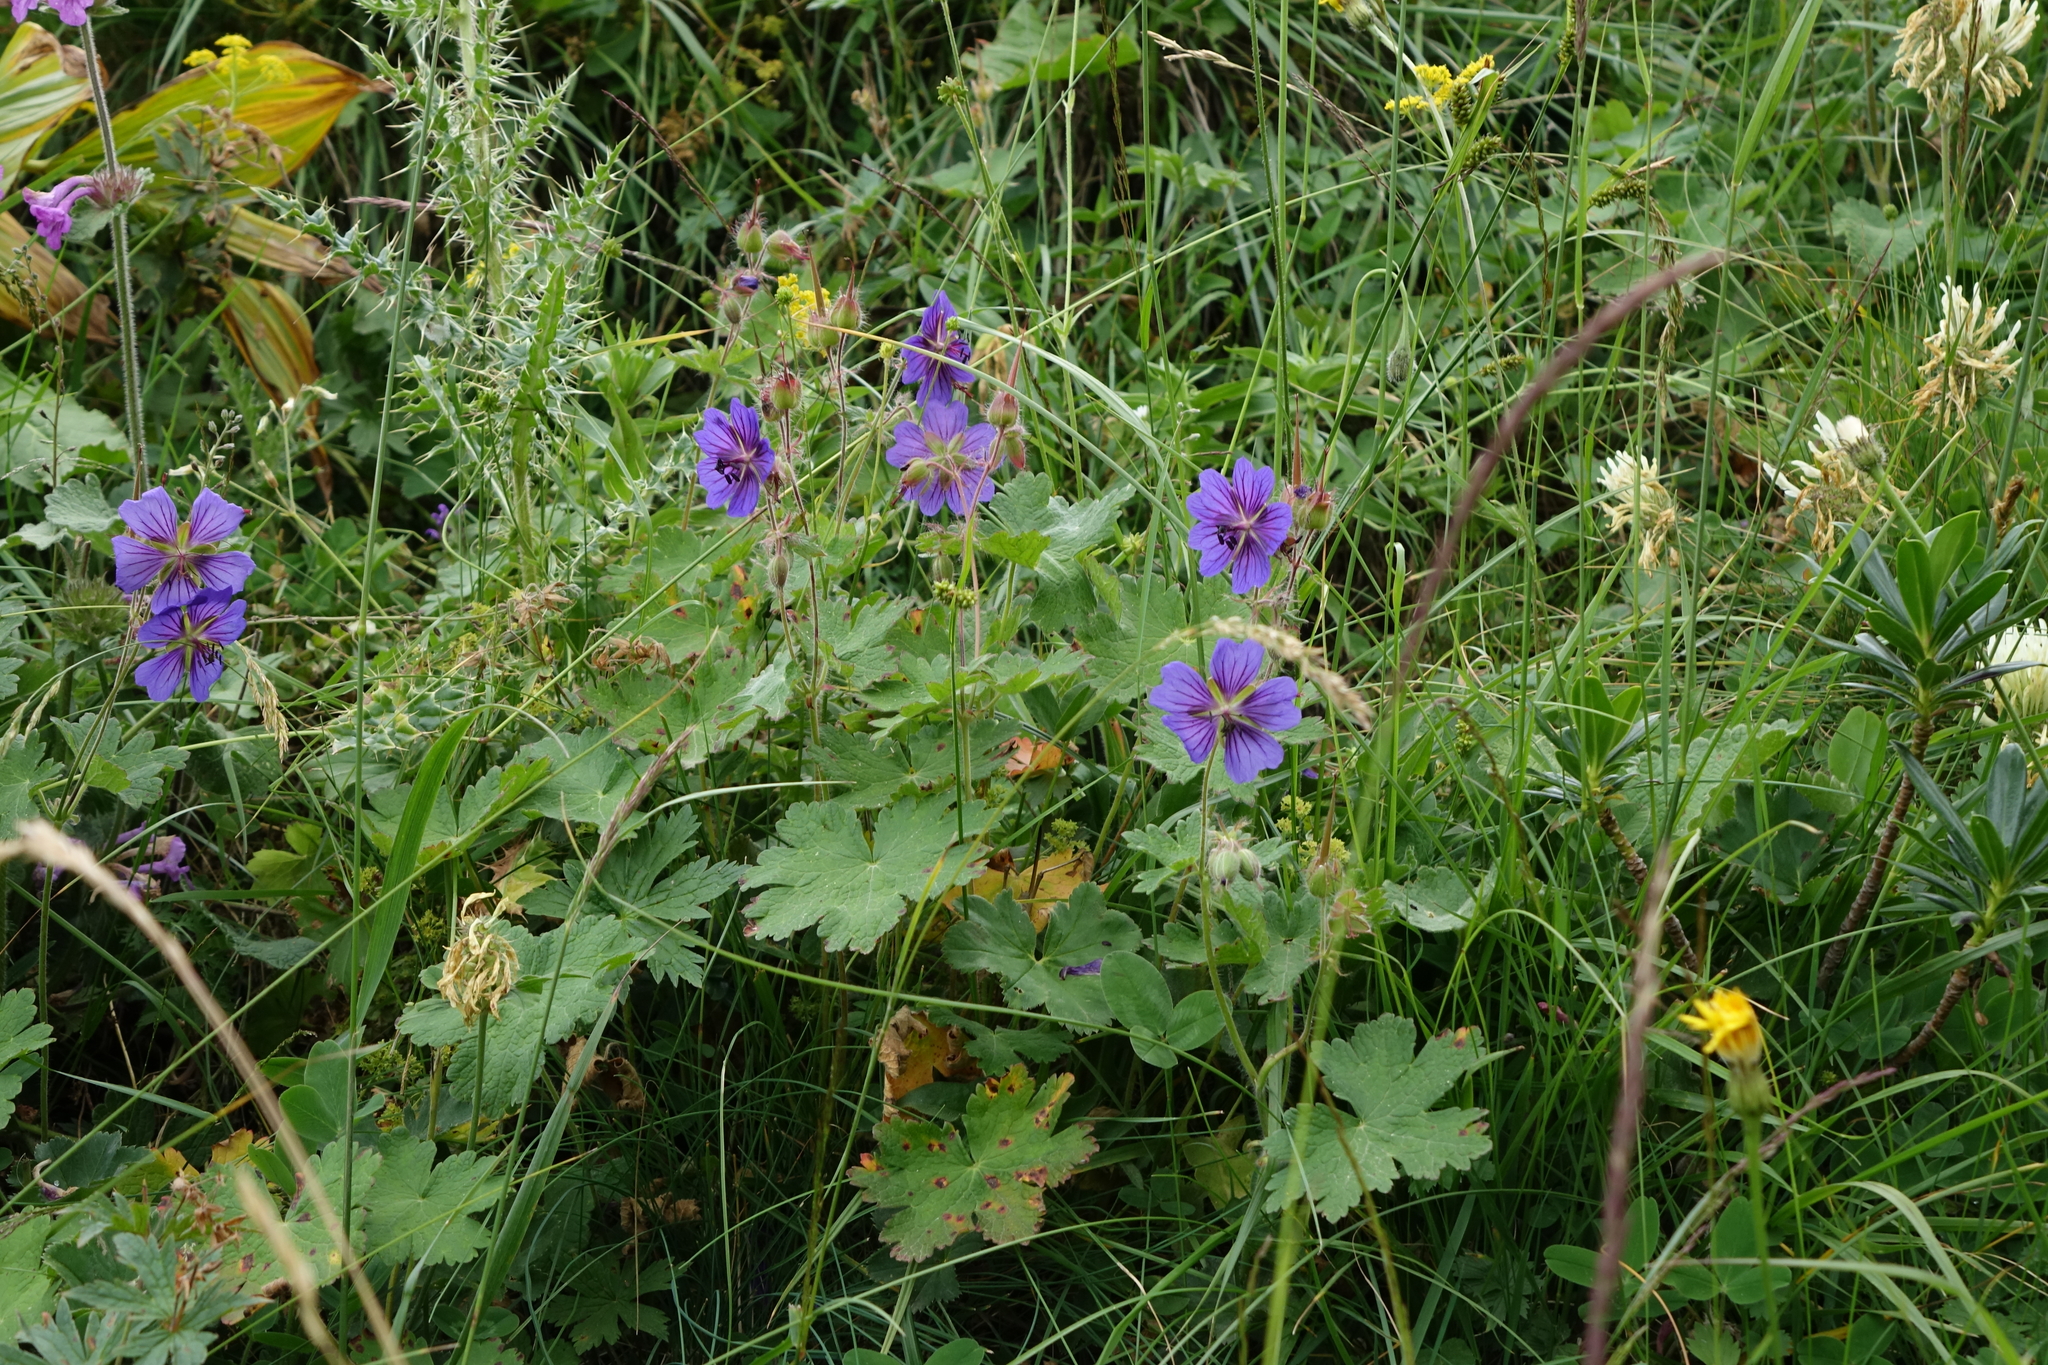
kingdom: Plantae
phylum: Tracheophyta
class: Magnoliopsida
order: Geraniales
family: Geraniaceae
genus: Geranium
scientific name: Geranium platypetalum
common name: Glandular crane's-bill
